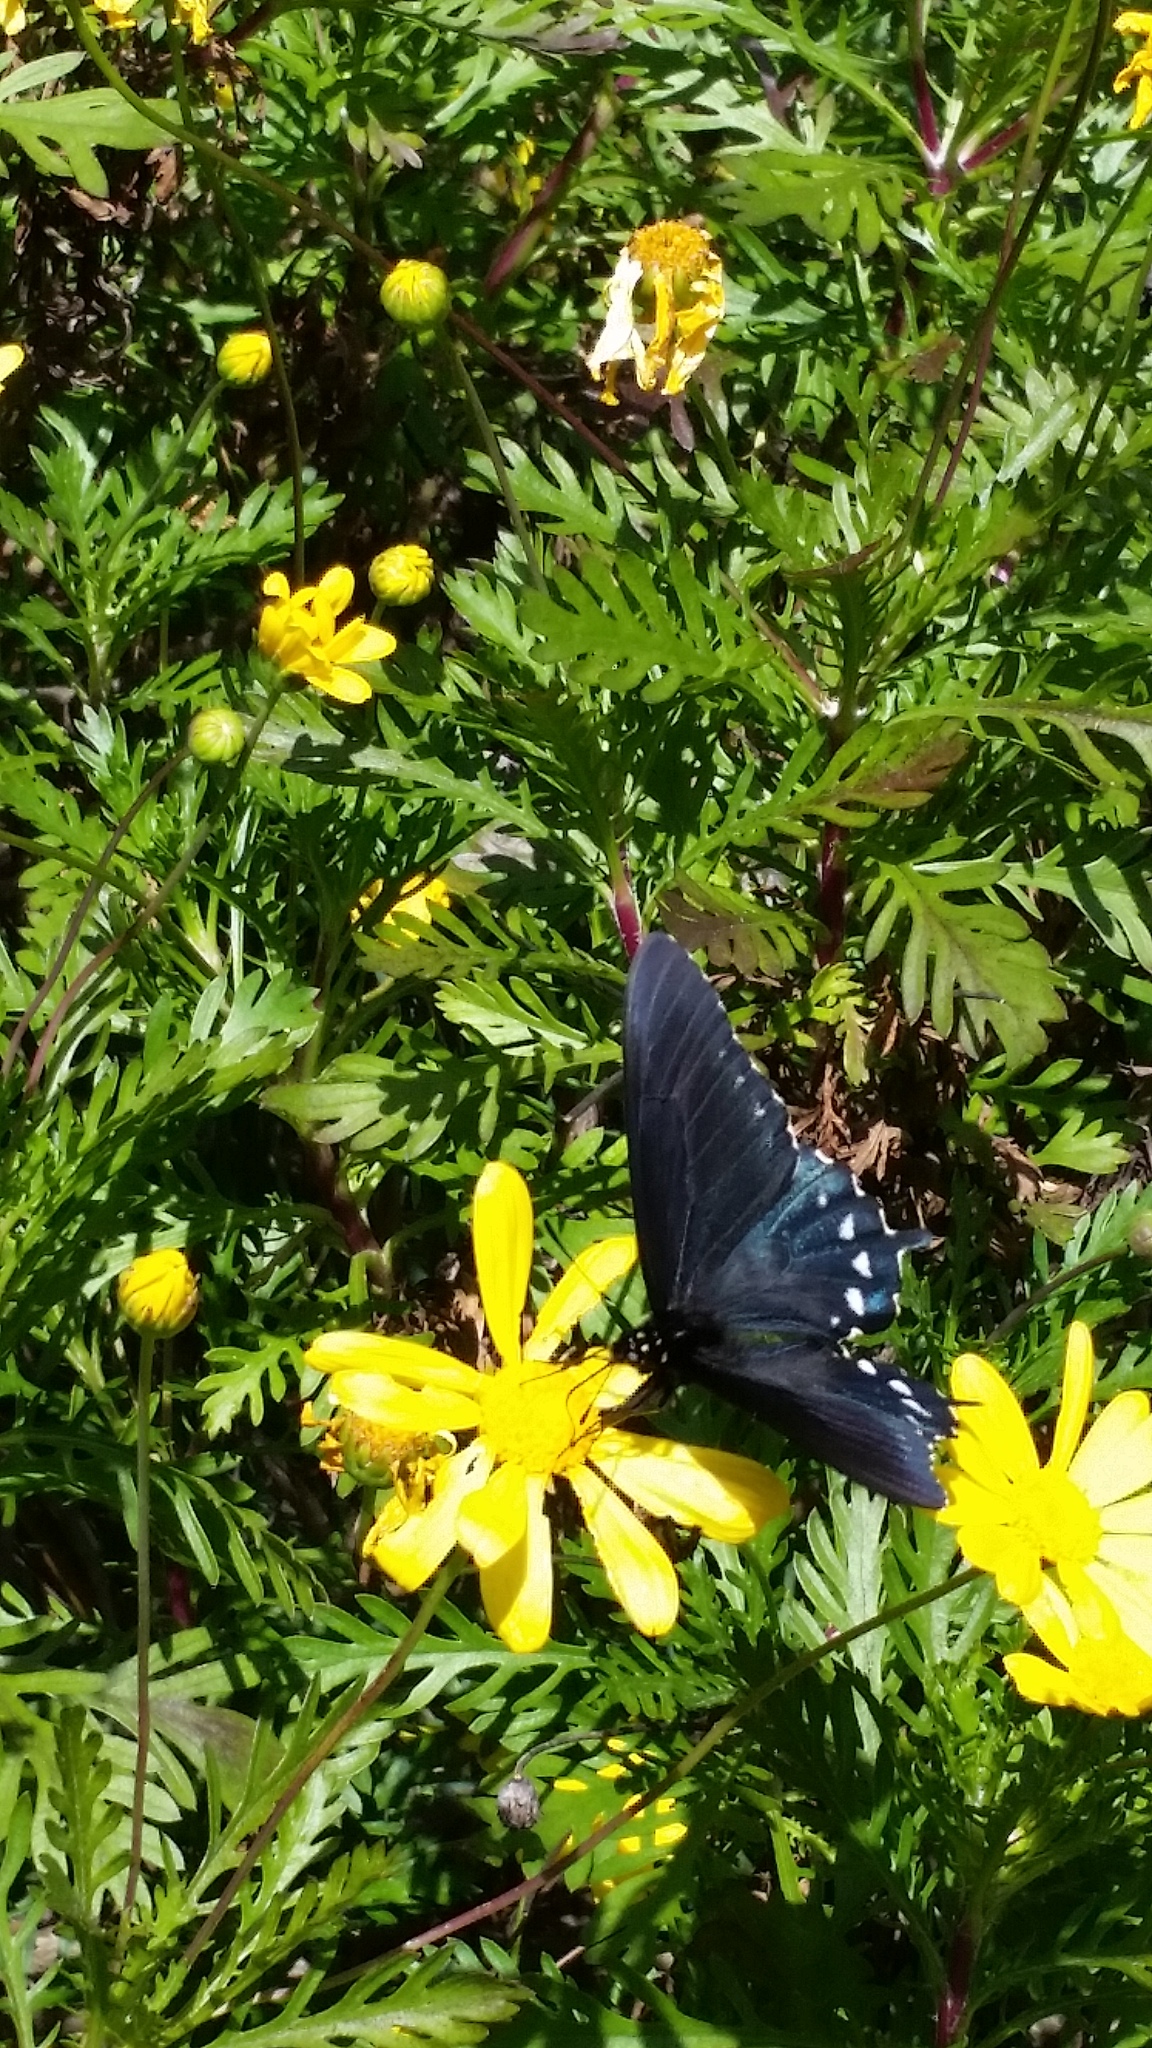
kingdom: Animalia
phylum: Arthropoda
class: Insecta
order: Lepidoptera
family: Papilionidae
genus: Battus
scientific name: Battus philenor
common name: Pipevine swallowtail
